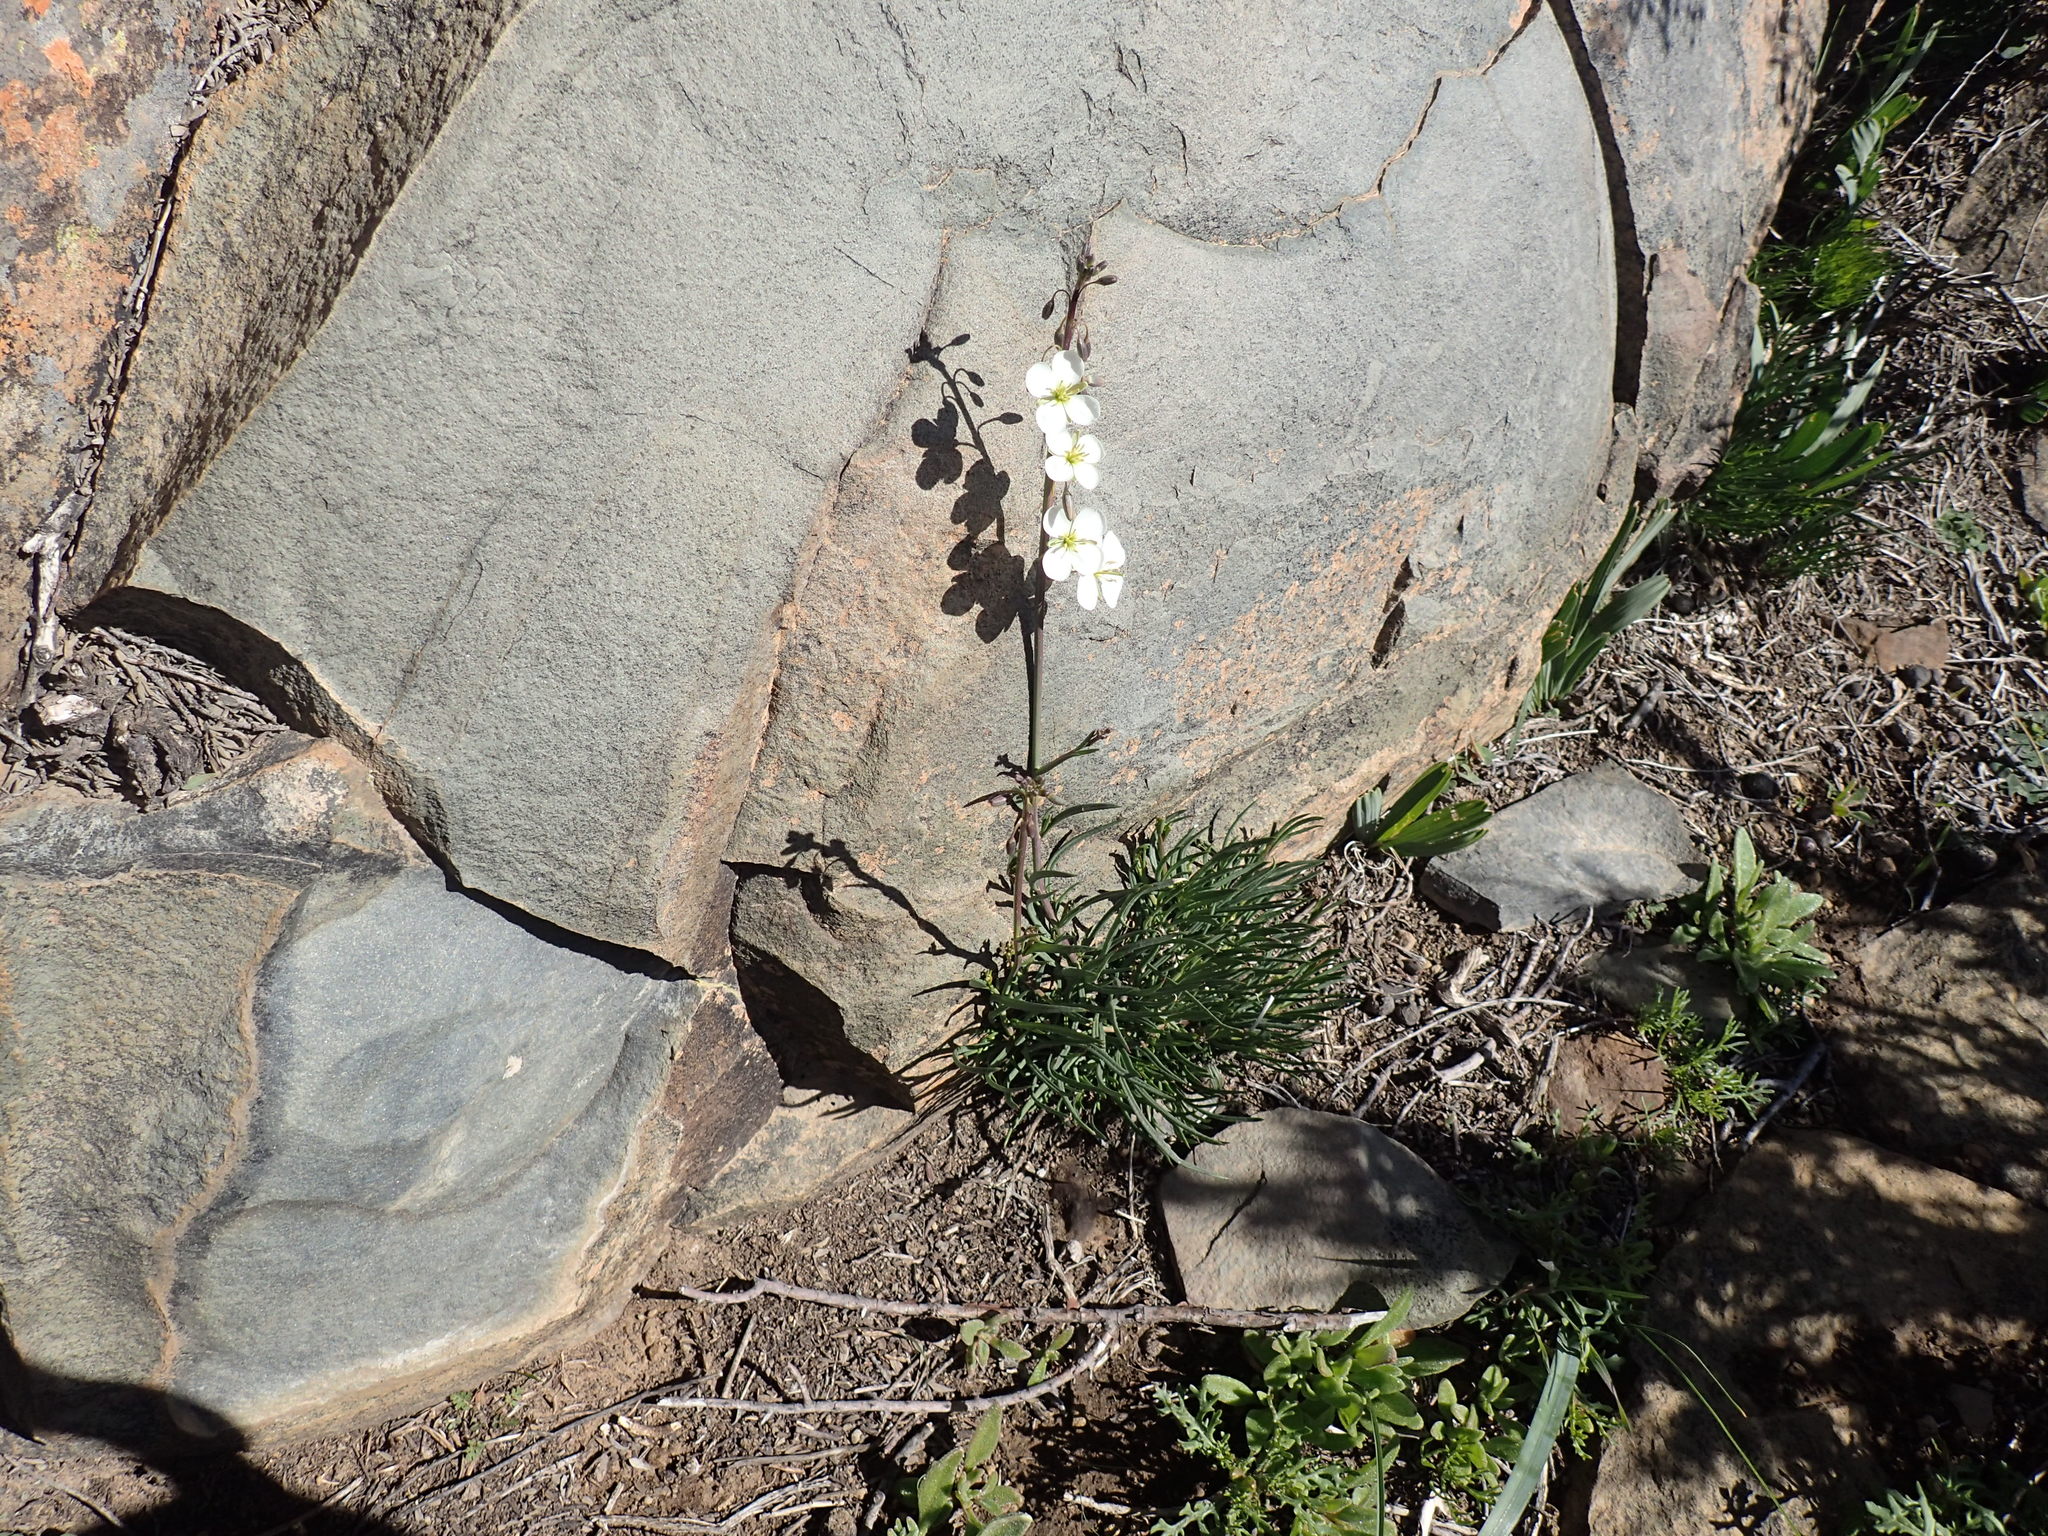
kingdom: Plantae
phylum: Tracheophyta
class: Magnoliopsida
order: Brassicales
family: Brassicaceae
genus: Heliophila
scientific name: Heliophila carnosa
